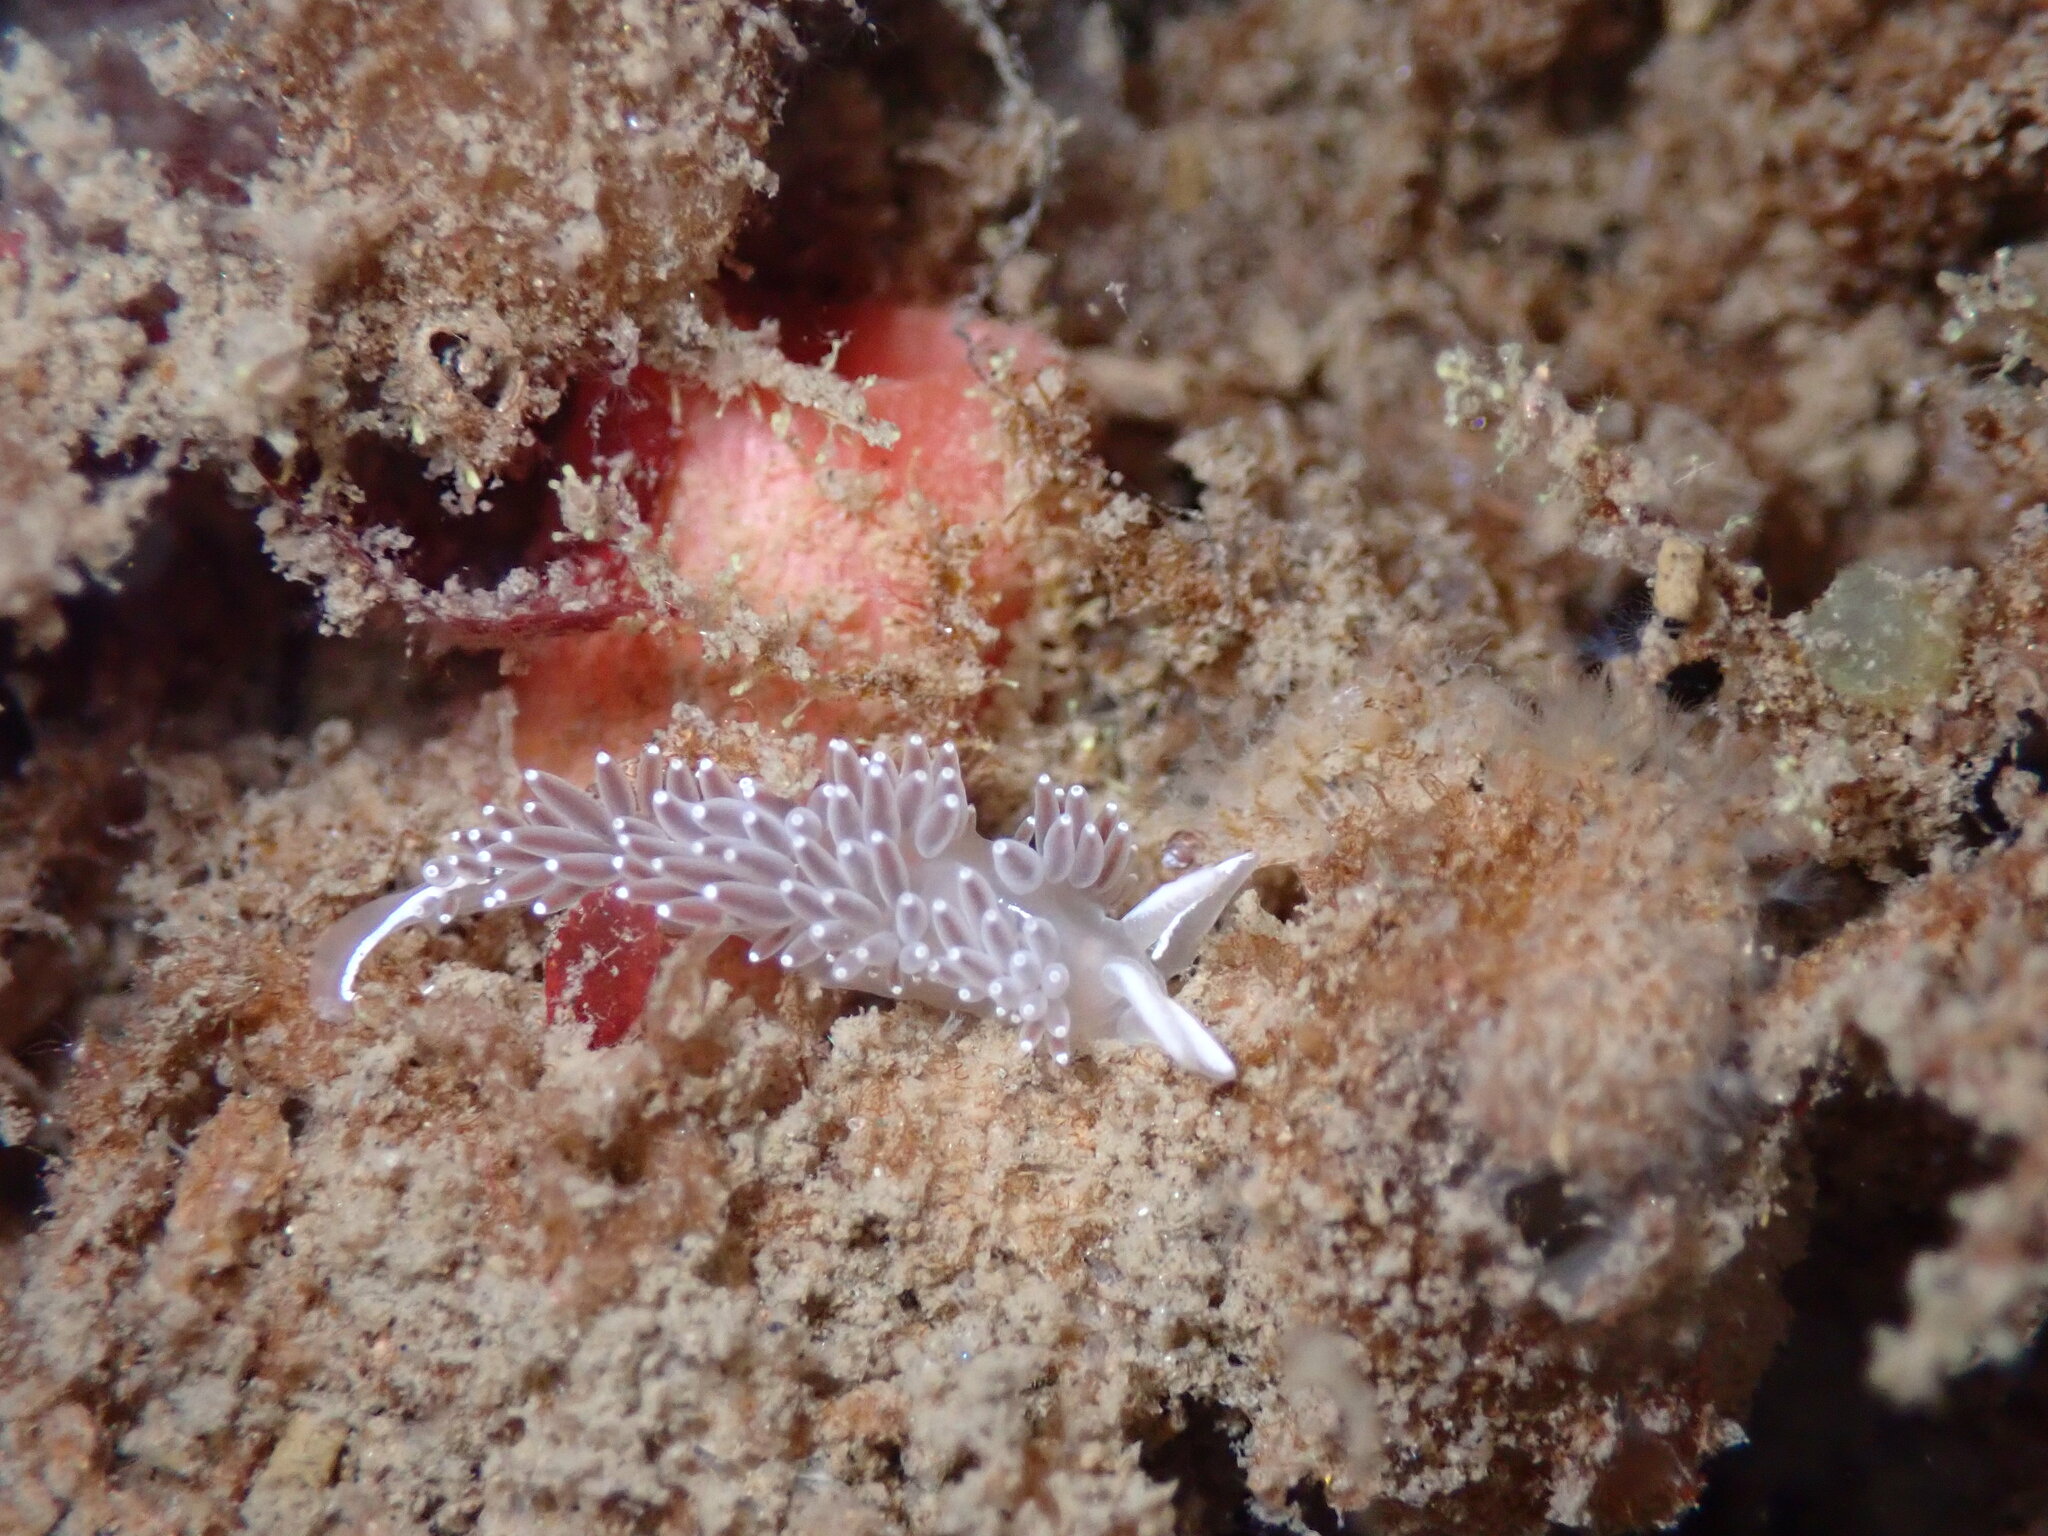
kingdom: Animalia
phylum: Mollusca
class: Gastropoda
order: Nudibranchia
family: Coryphellidae
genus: Coryphella
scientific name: Coryphella verrucosa
